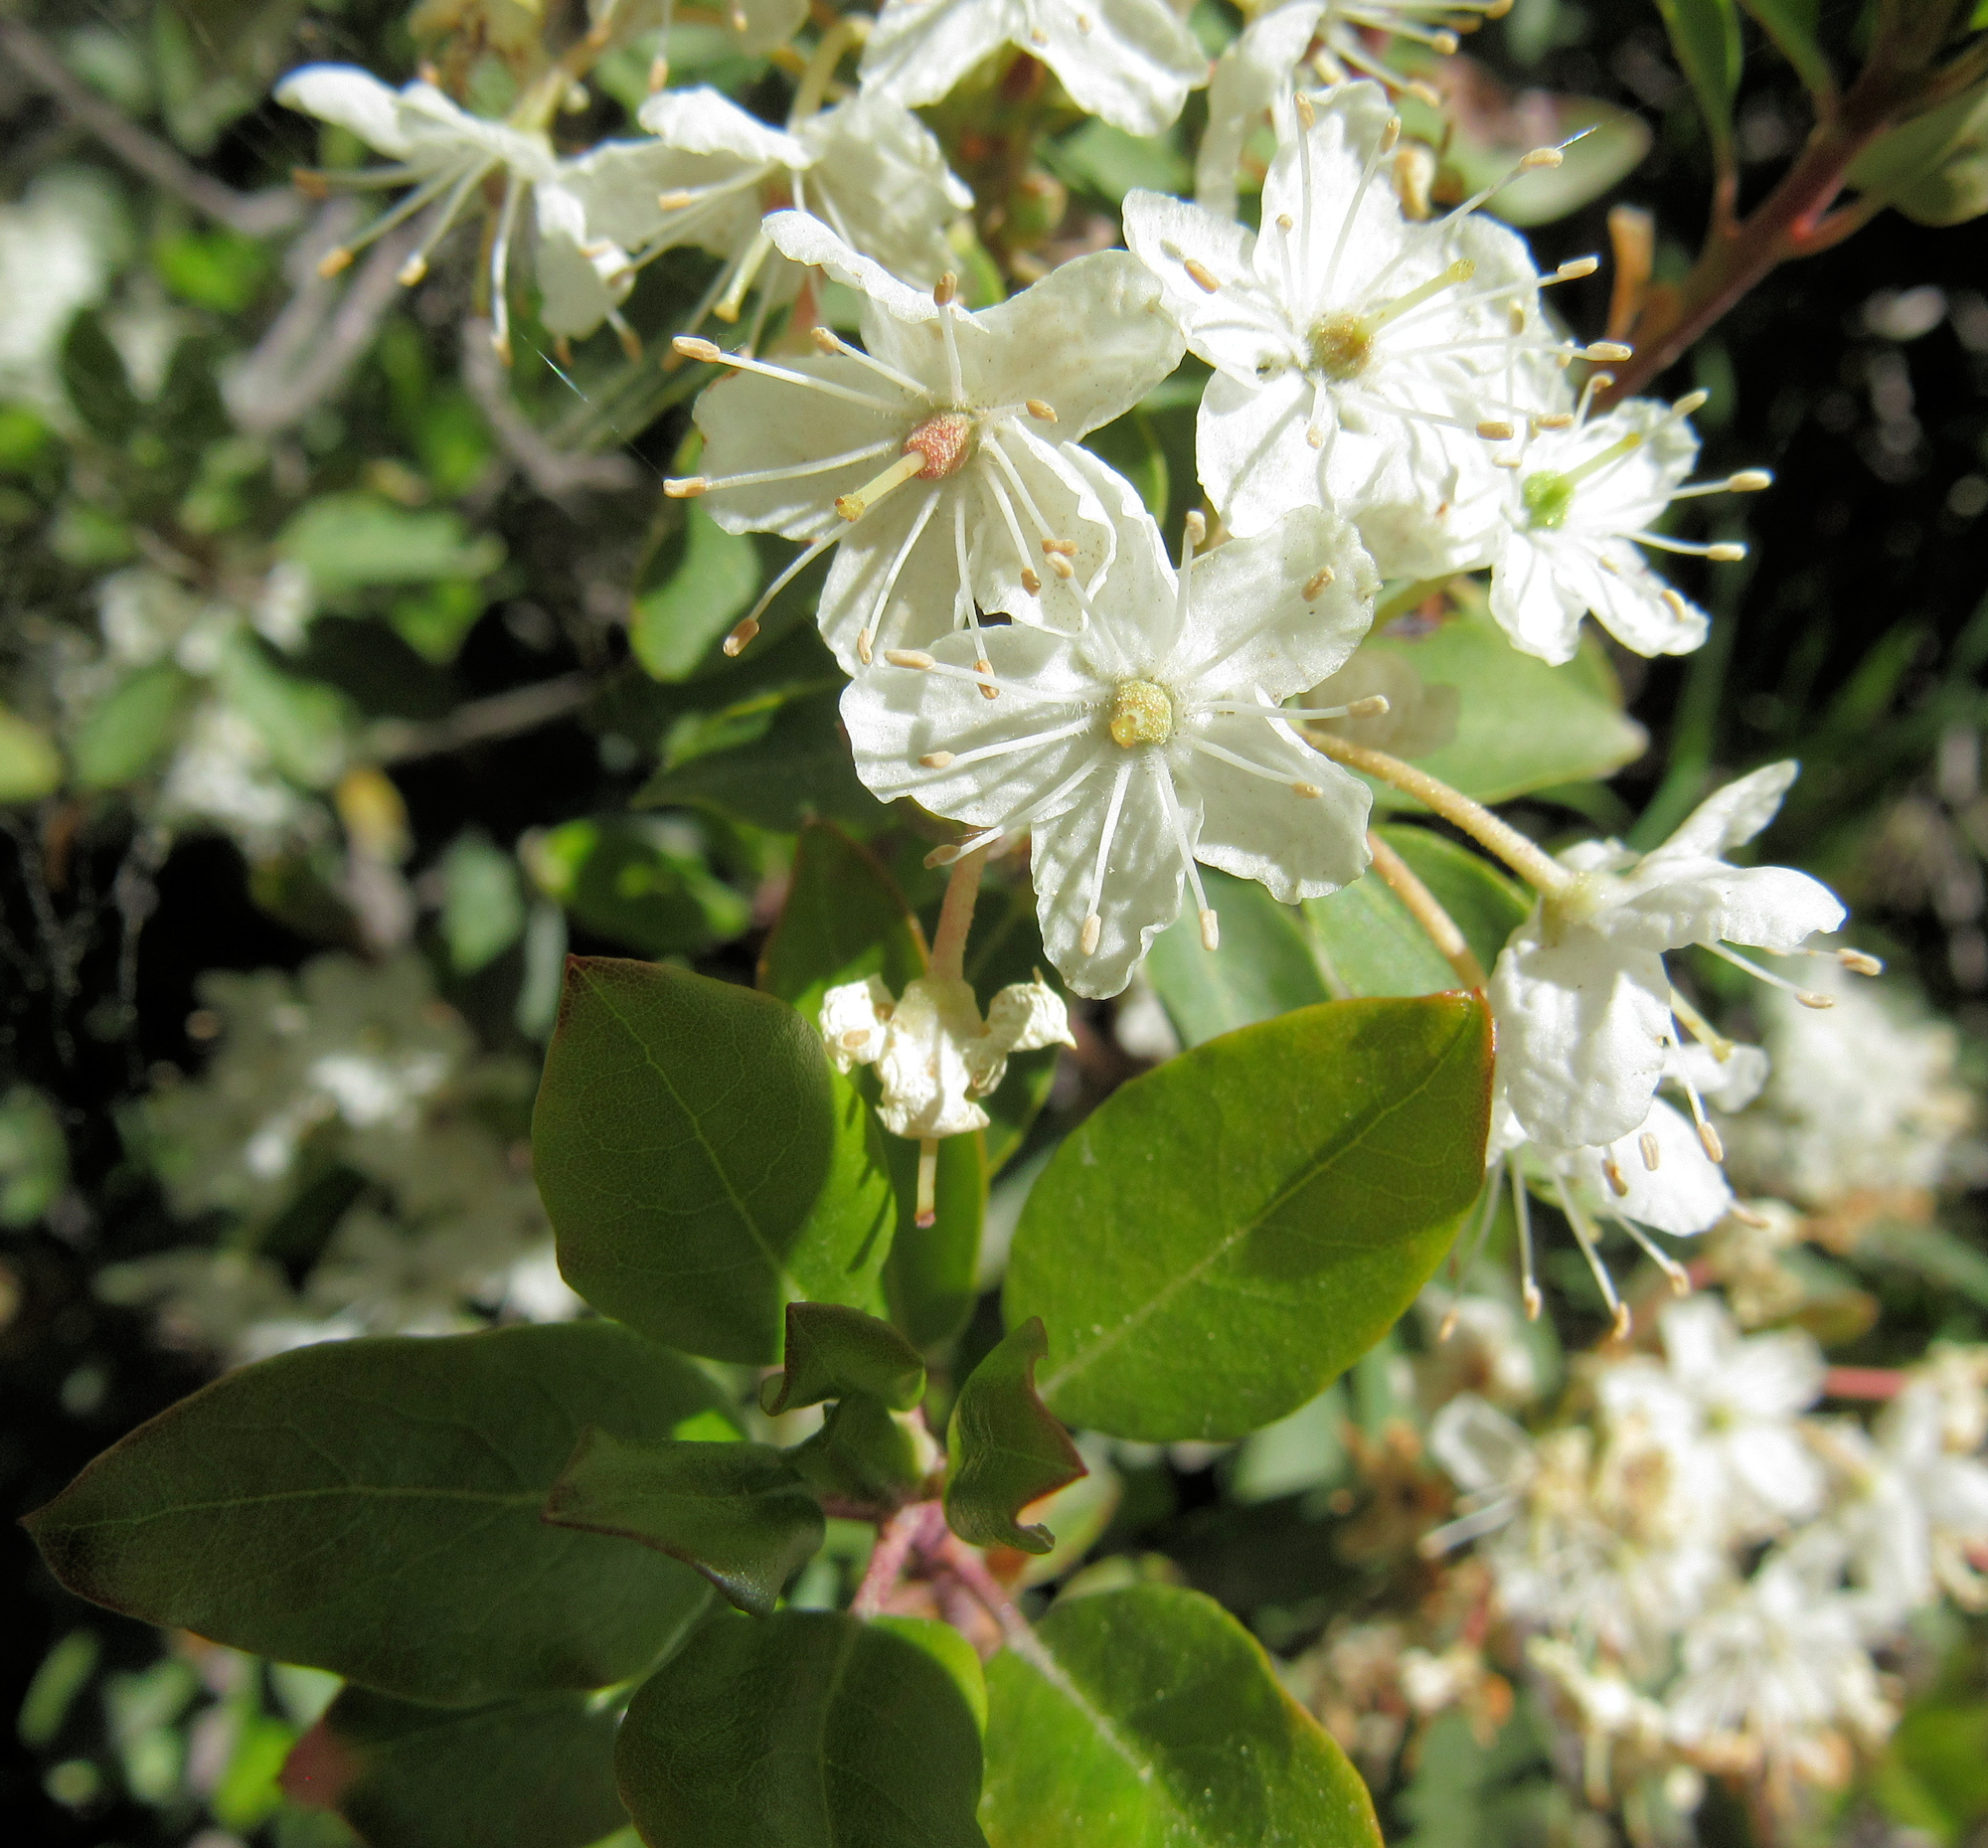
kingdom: Plantae
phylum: Tracheophyta
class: Magnoliopsida
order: Ericales
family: Ericaceae
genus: Rhododendron
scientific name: Rhododendron columbianum
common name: Western labrador tea
